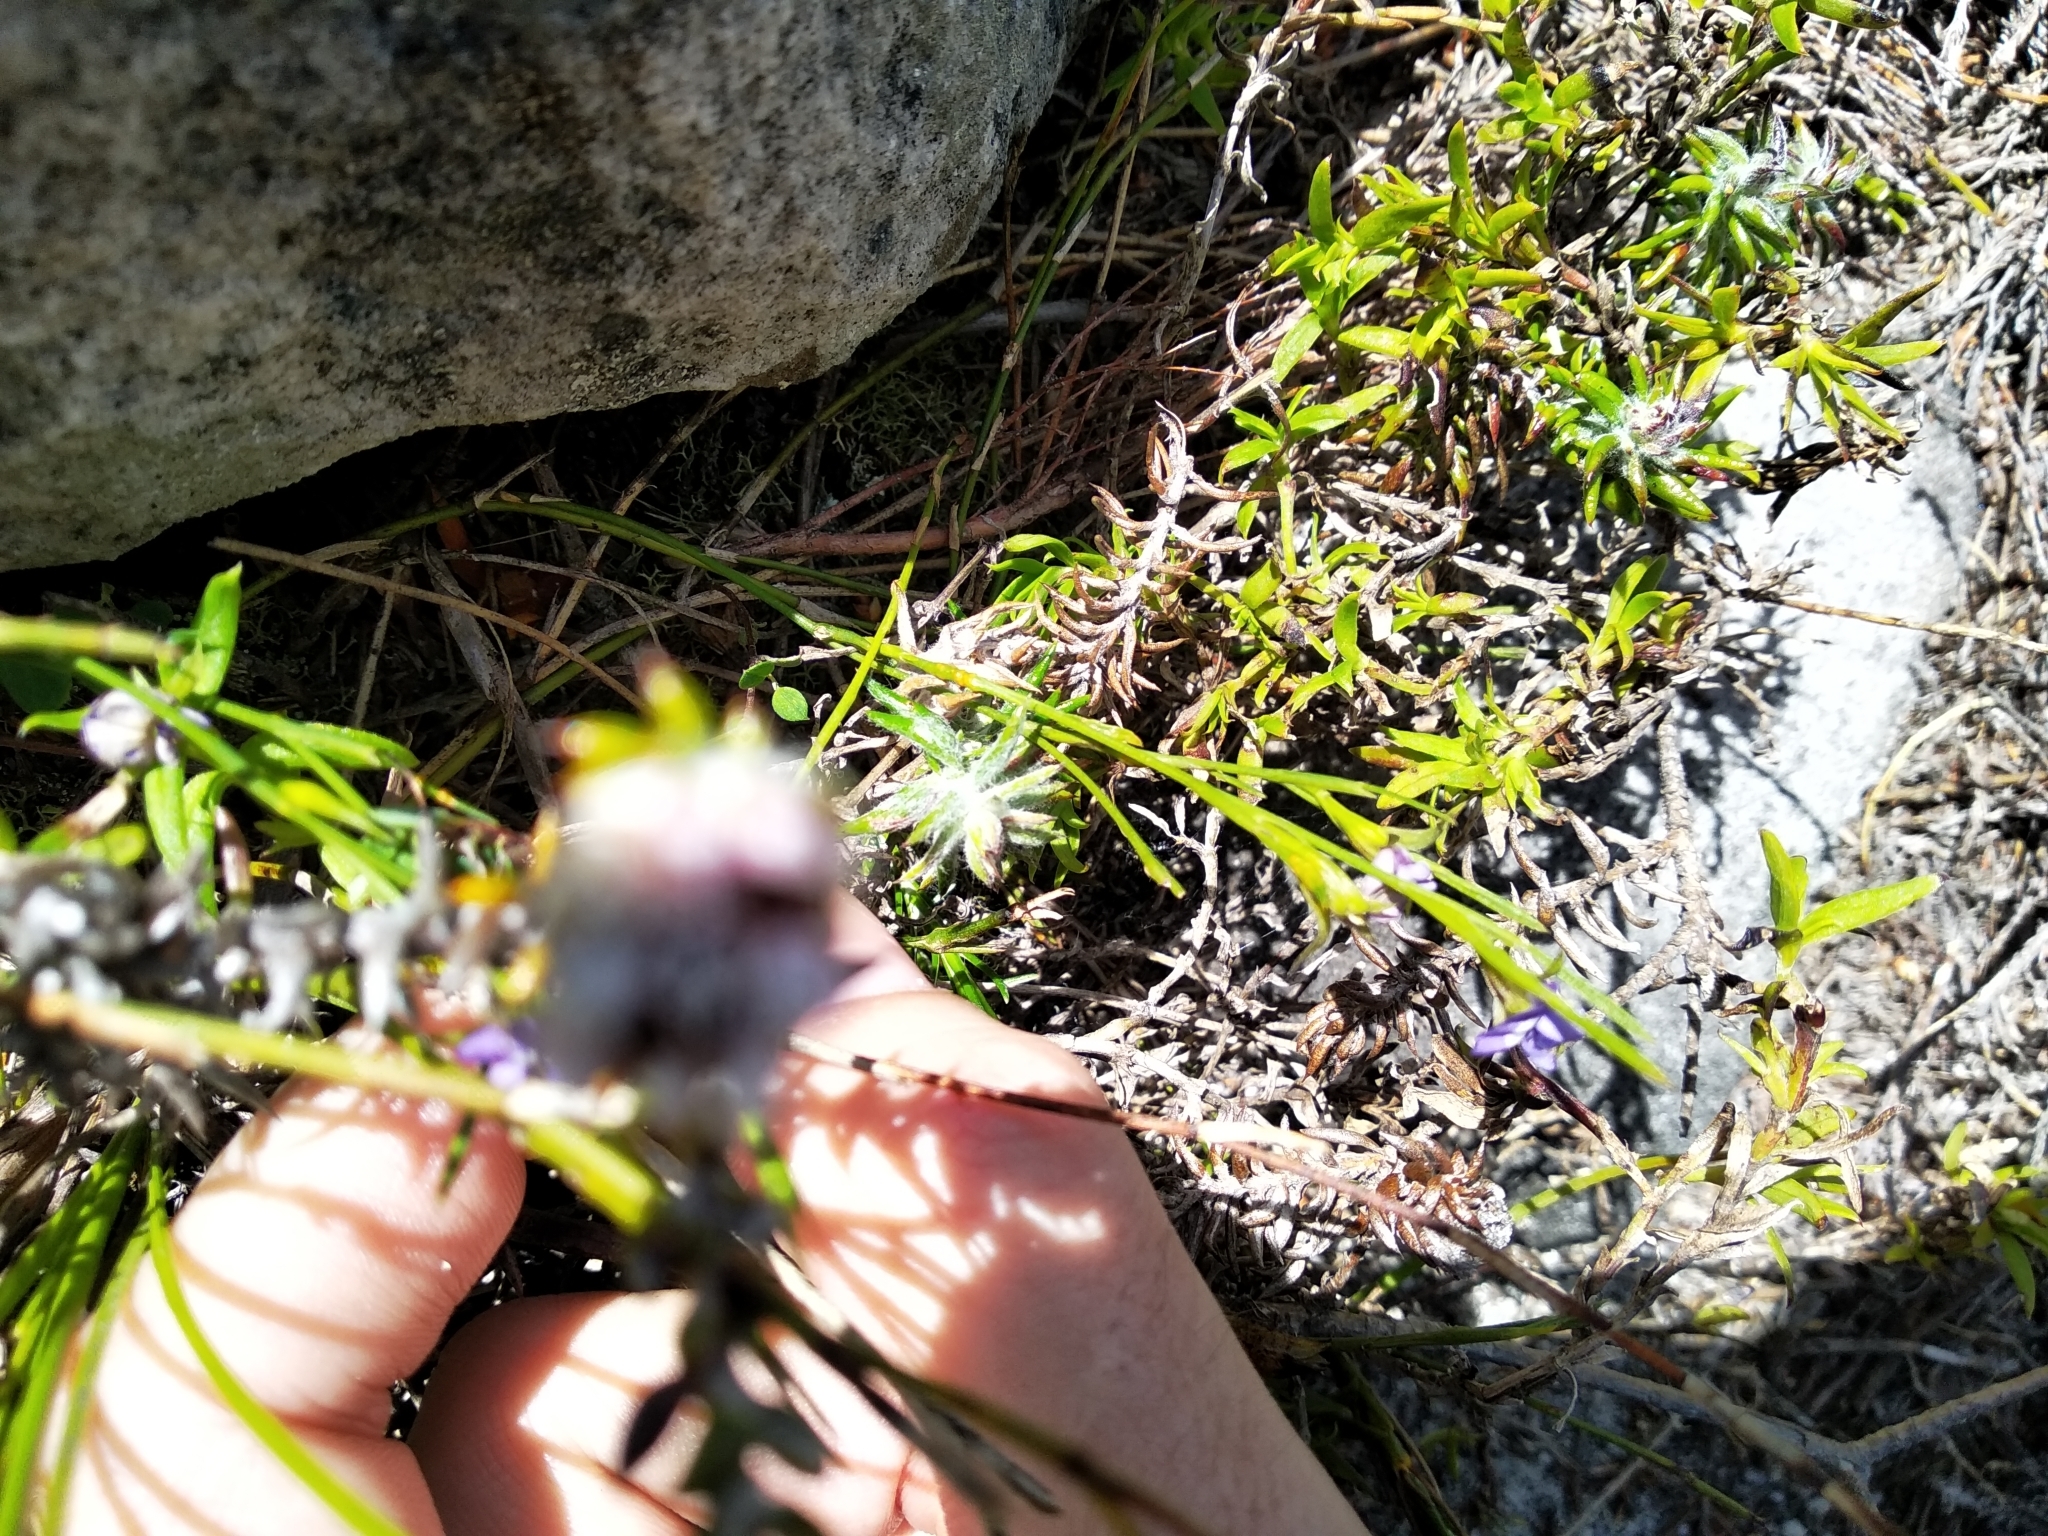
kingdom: Plantae
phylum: Tracheophyta
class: Magnoliopsida
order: Fabales
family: Fabaceae
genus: Psoralea
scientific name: Psoralea fascicularis
